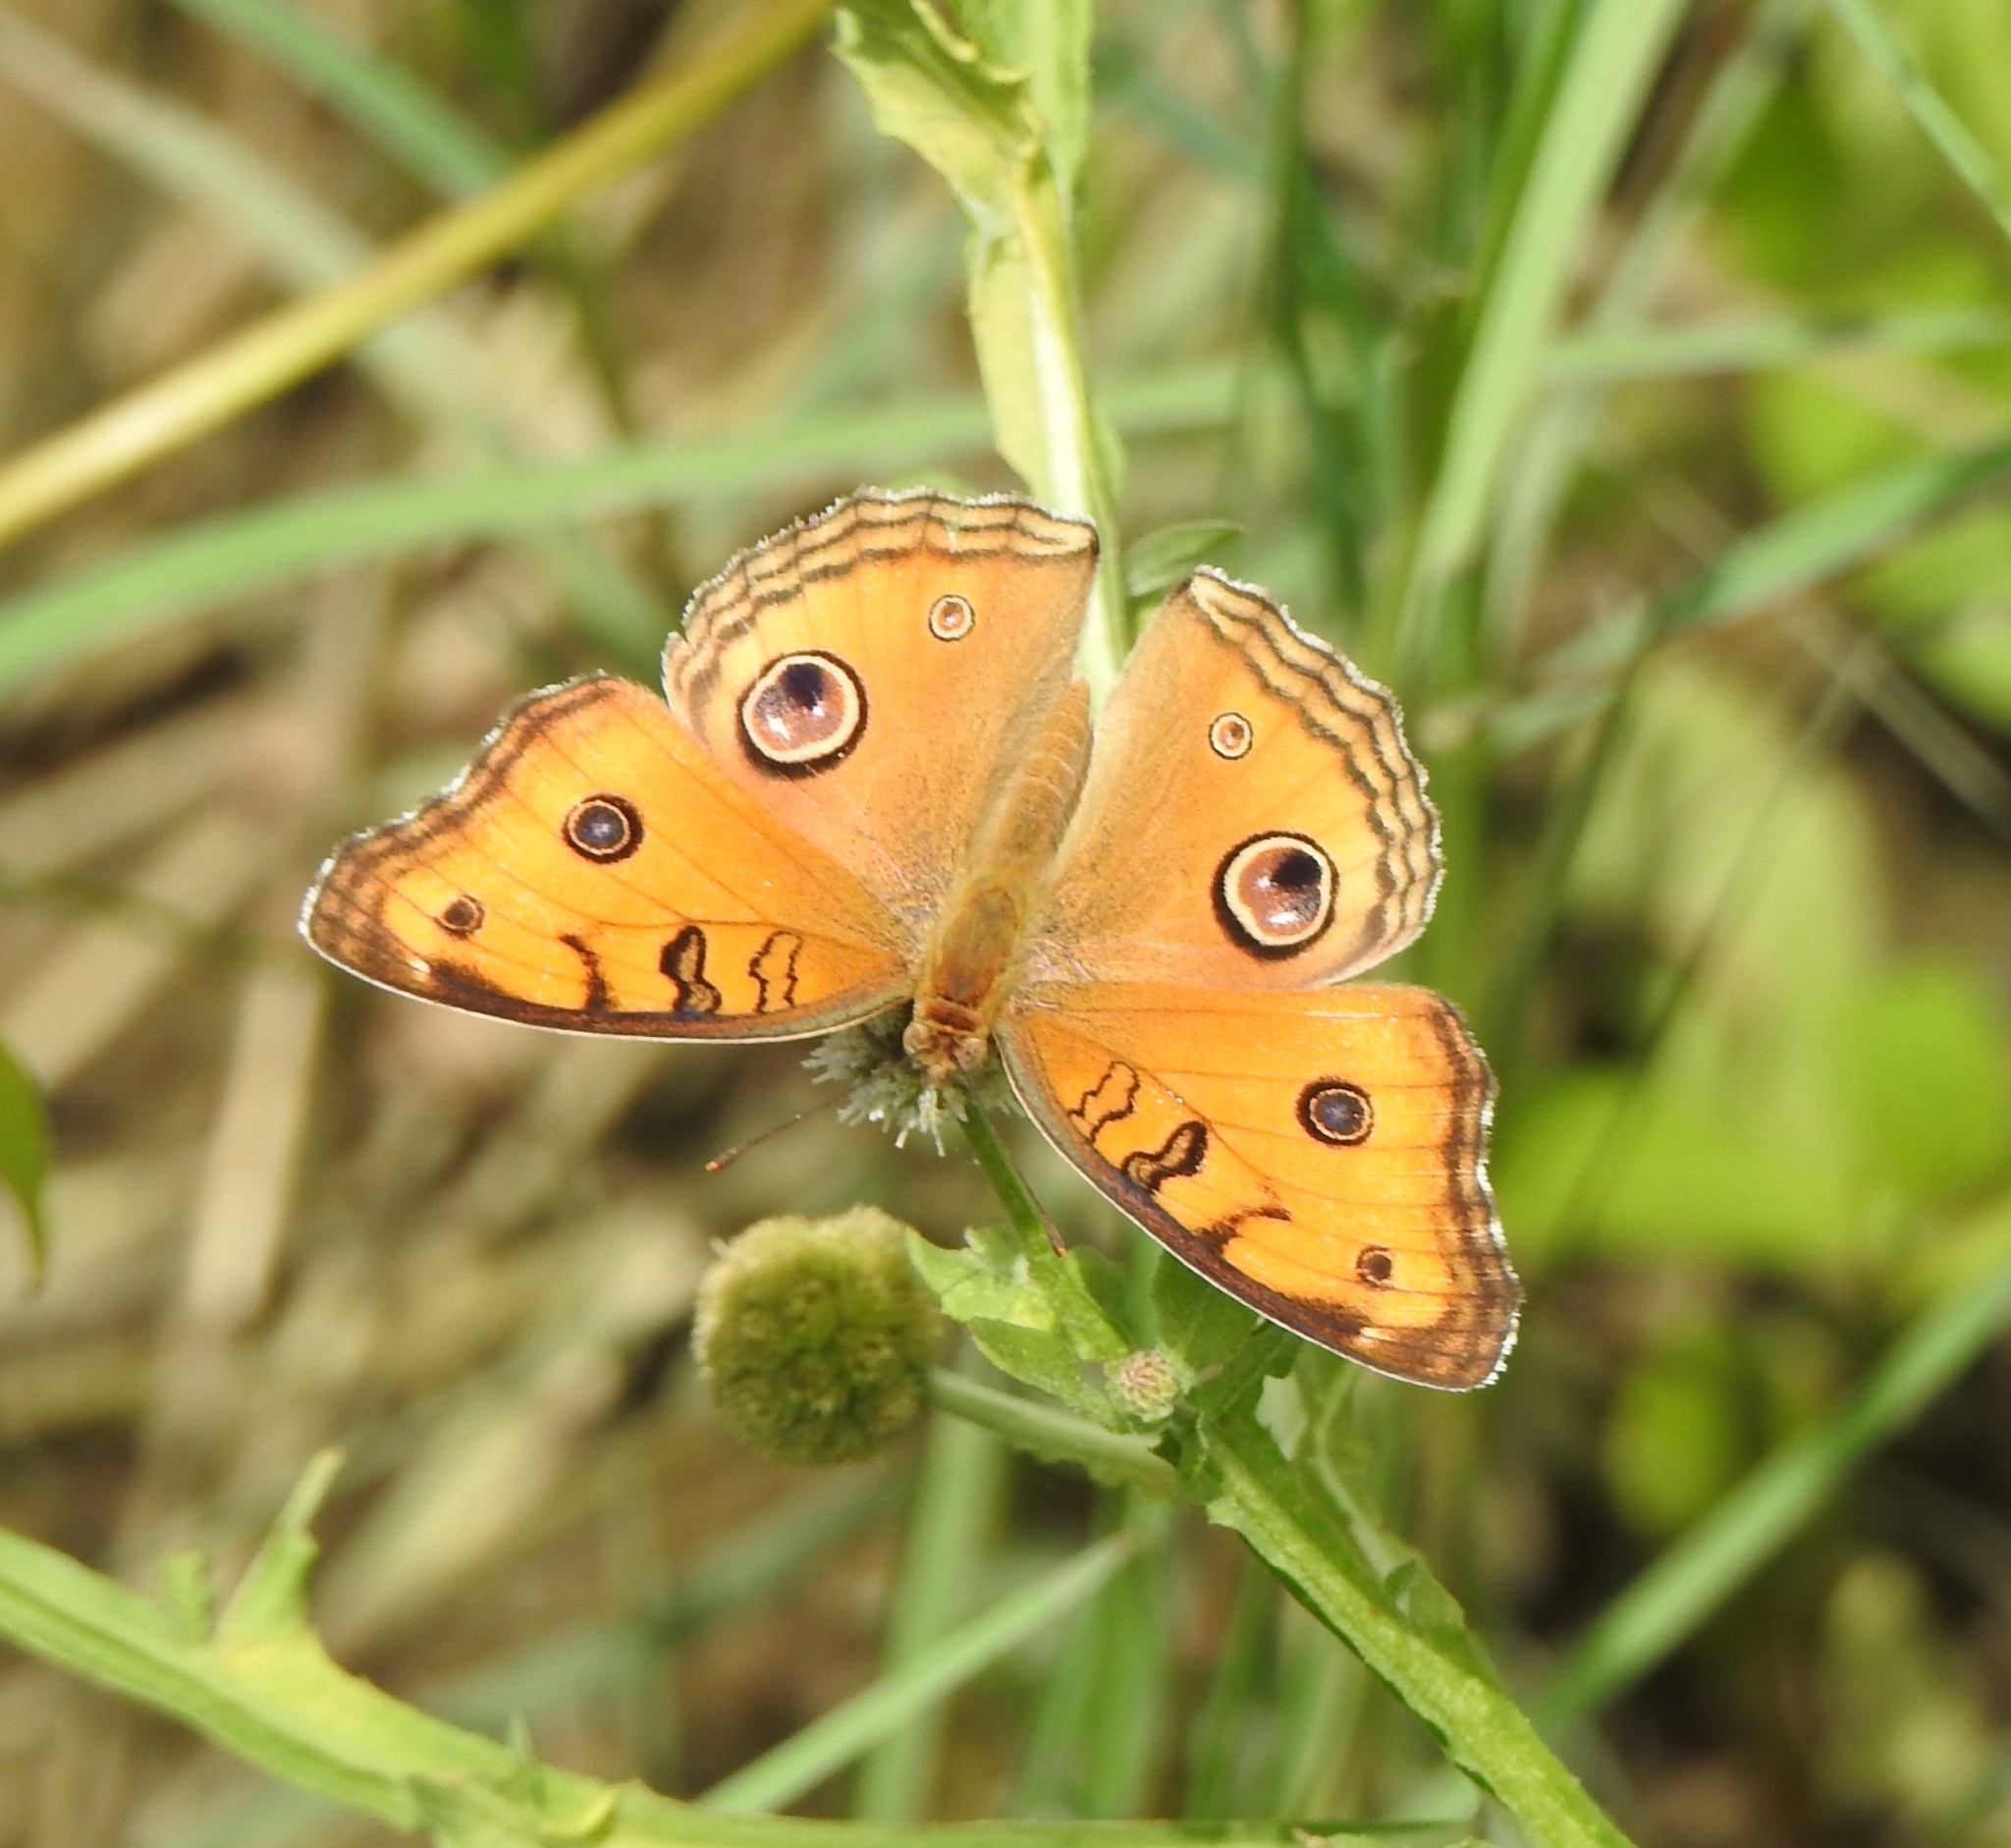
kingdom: Animalia
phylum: Arthropoda
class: Insecta
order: Lepidoptera
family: Nymphalidae
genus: Junonia
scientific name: Junonia almana
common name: Peacock pansy
